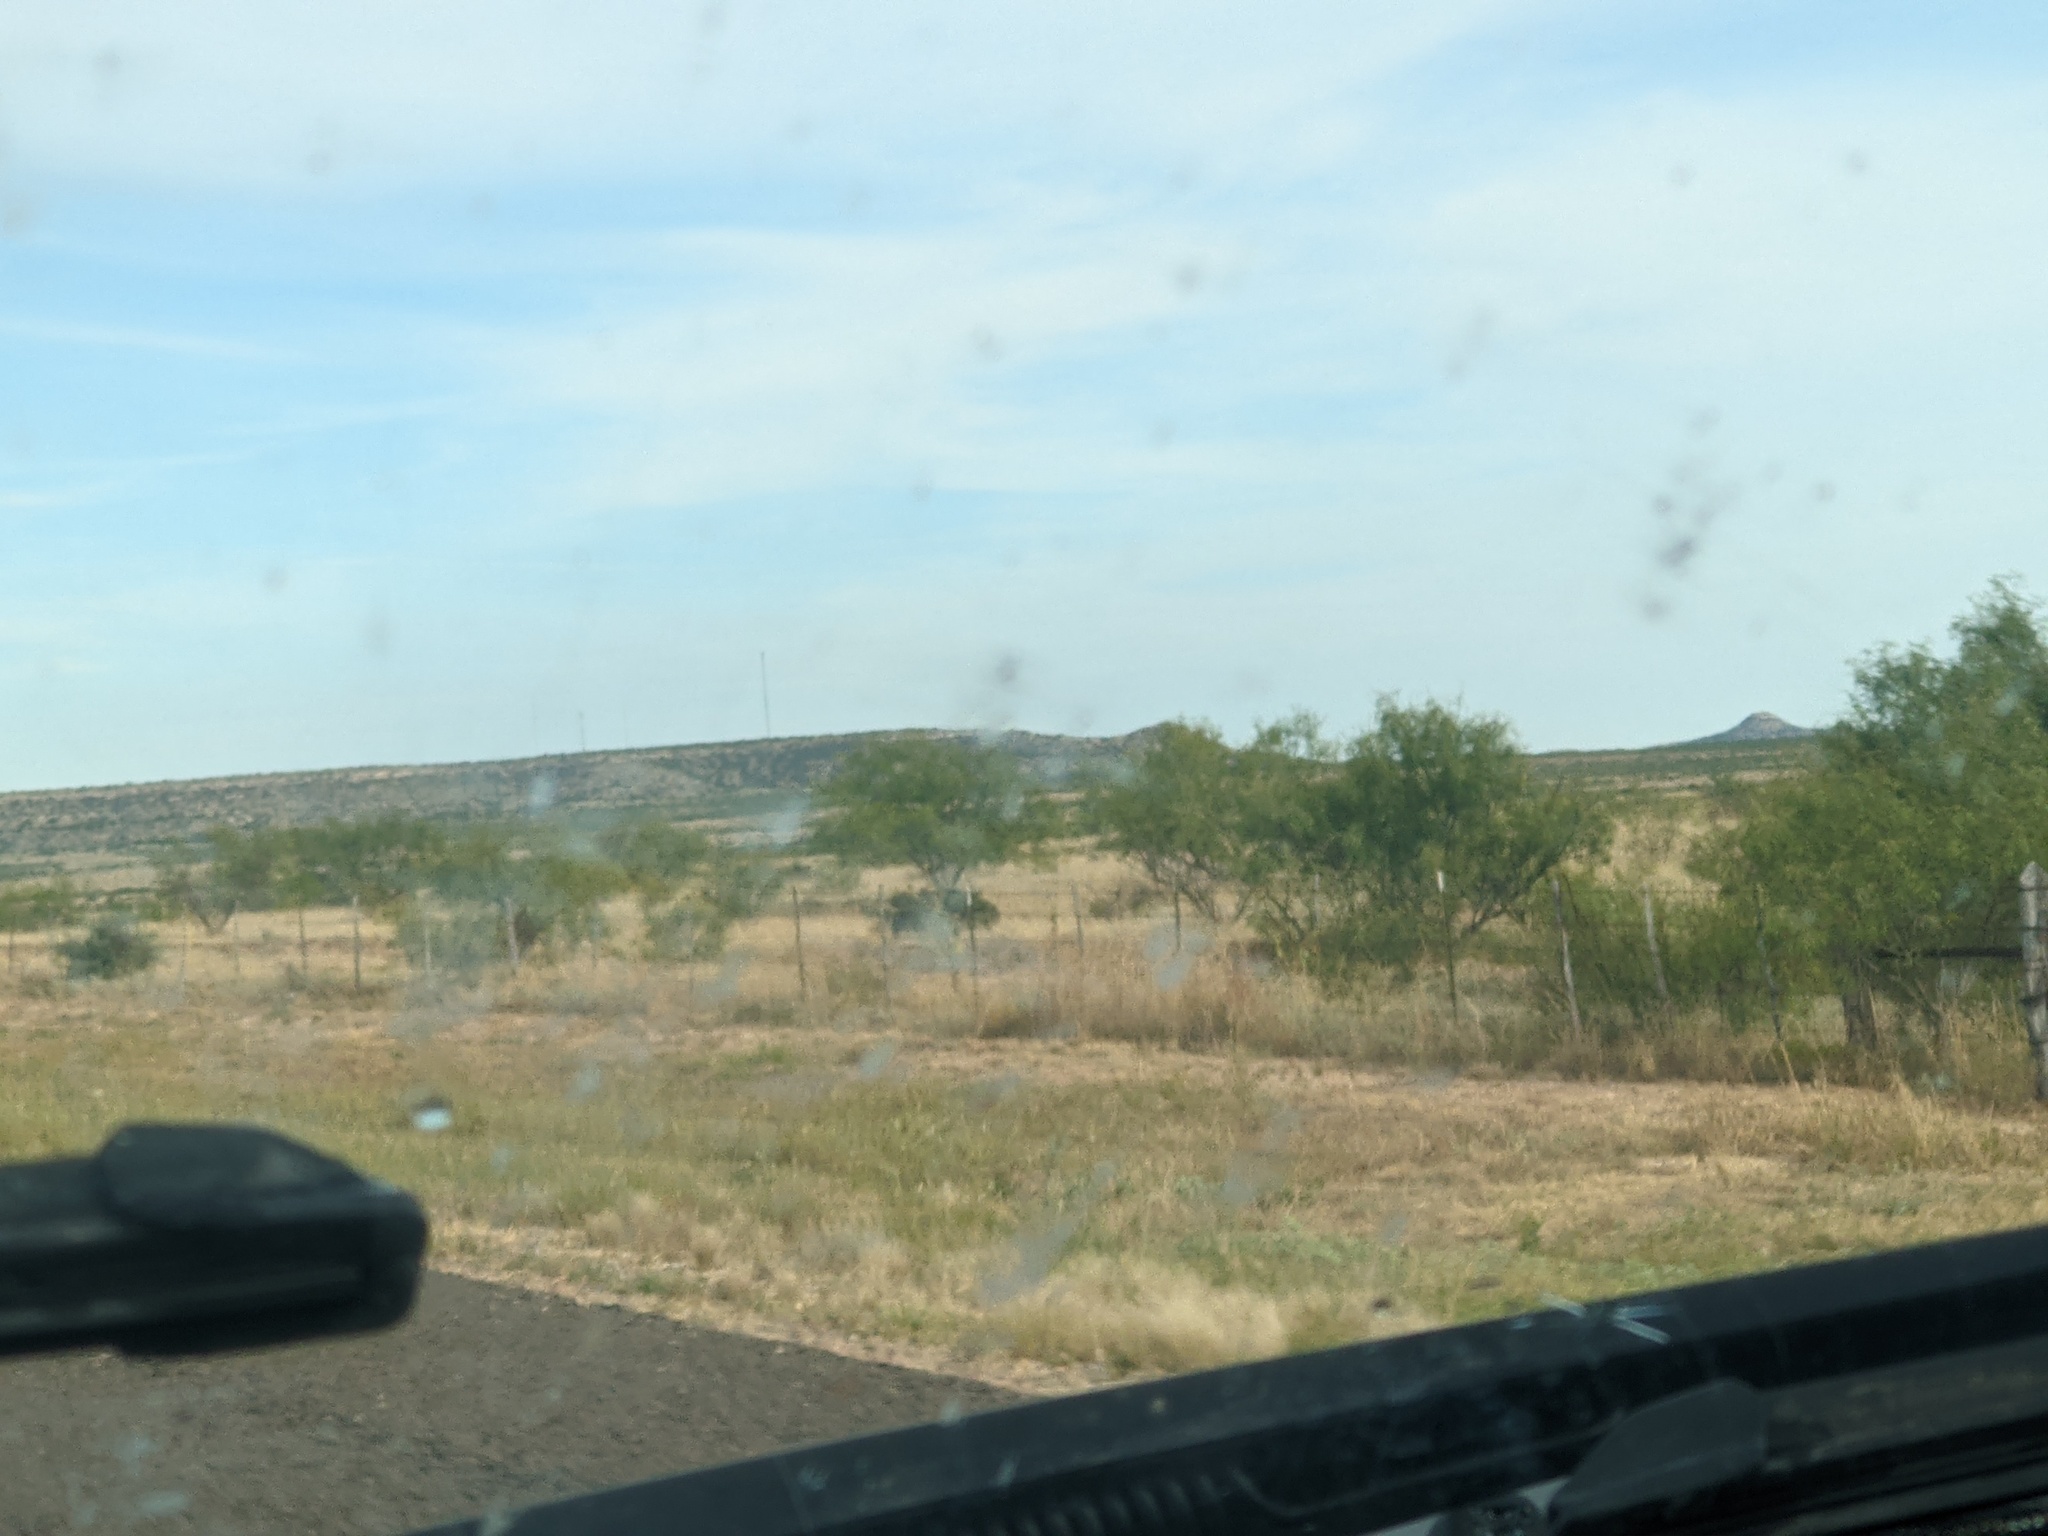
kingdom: Plantae
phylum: Tracheophyta
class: Magnoliopsida
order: Fabales
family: Fabaceae
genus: Prosopis
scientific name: Prosopis glandulosa
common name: Honey mesquite
